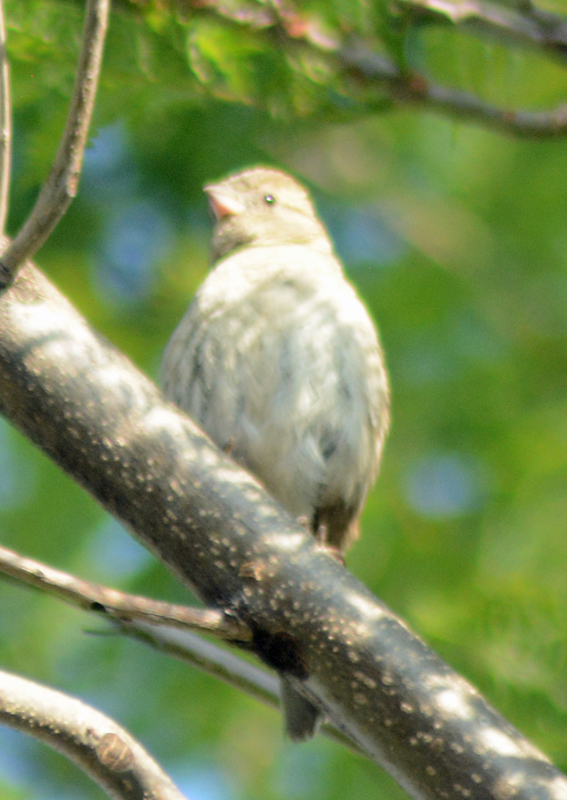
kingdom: Animalia
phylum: Chordata
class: Aves
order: Passeriformes
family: Passeridae
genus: Passer
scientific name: Passer domesticus
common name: House sparrow
